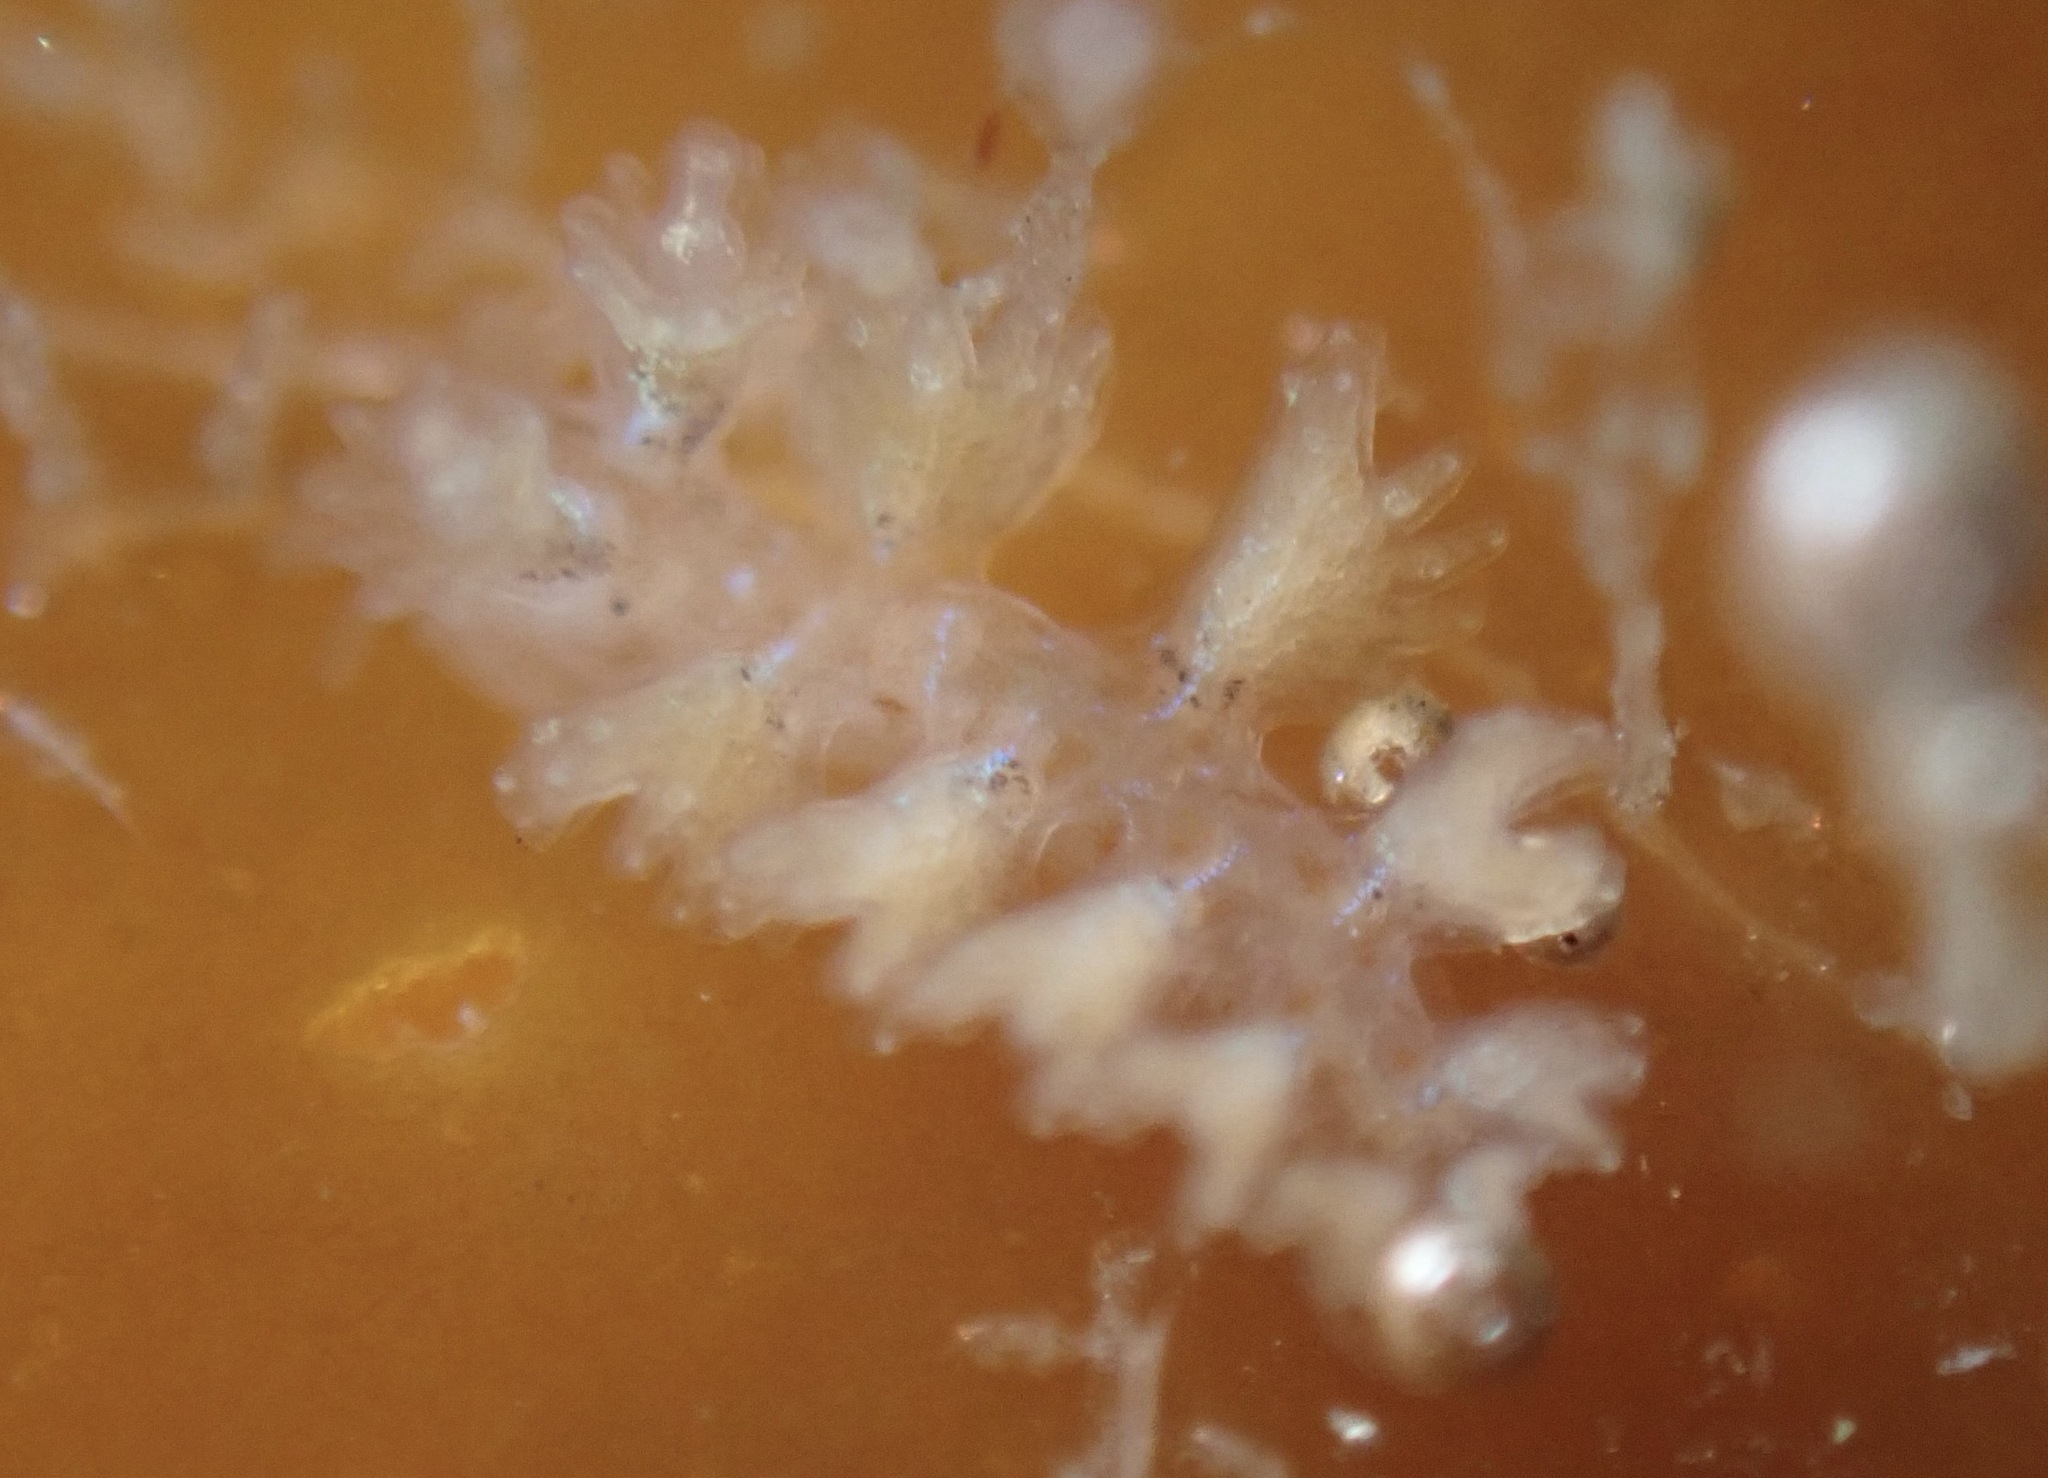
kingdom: Animalia
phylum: Mollusca
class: Gastropoda
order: Nudibranchia
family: Hancockiidae
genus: Hancockia
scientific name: Hancockia californica
